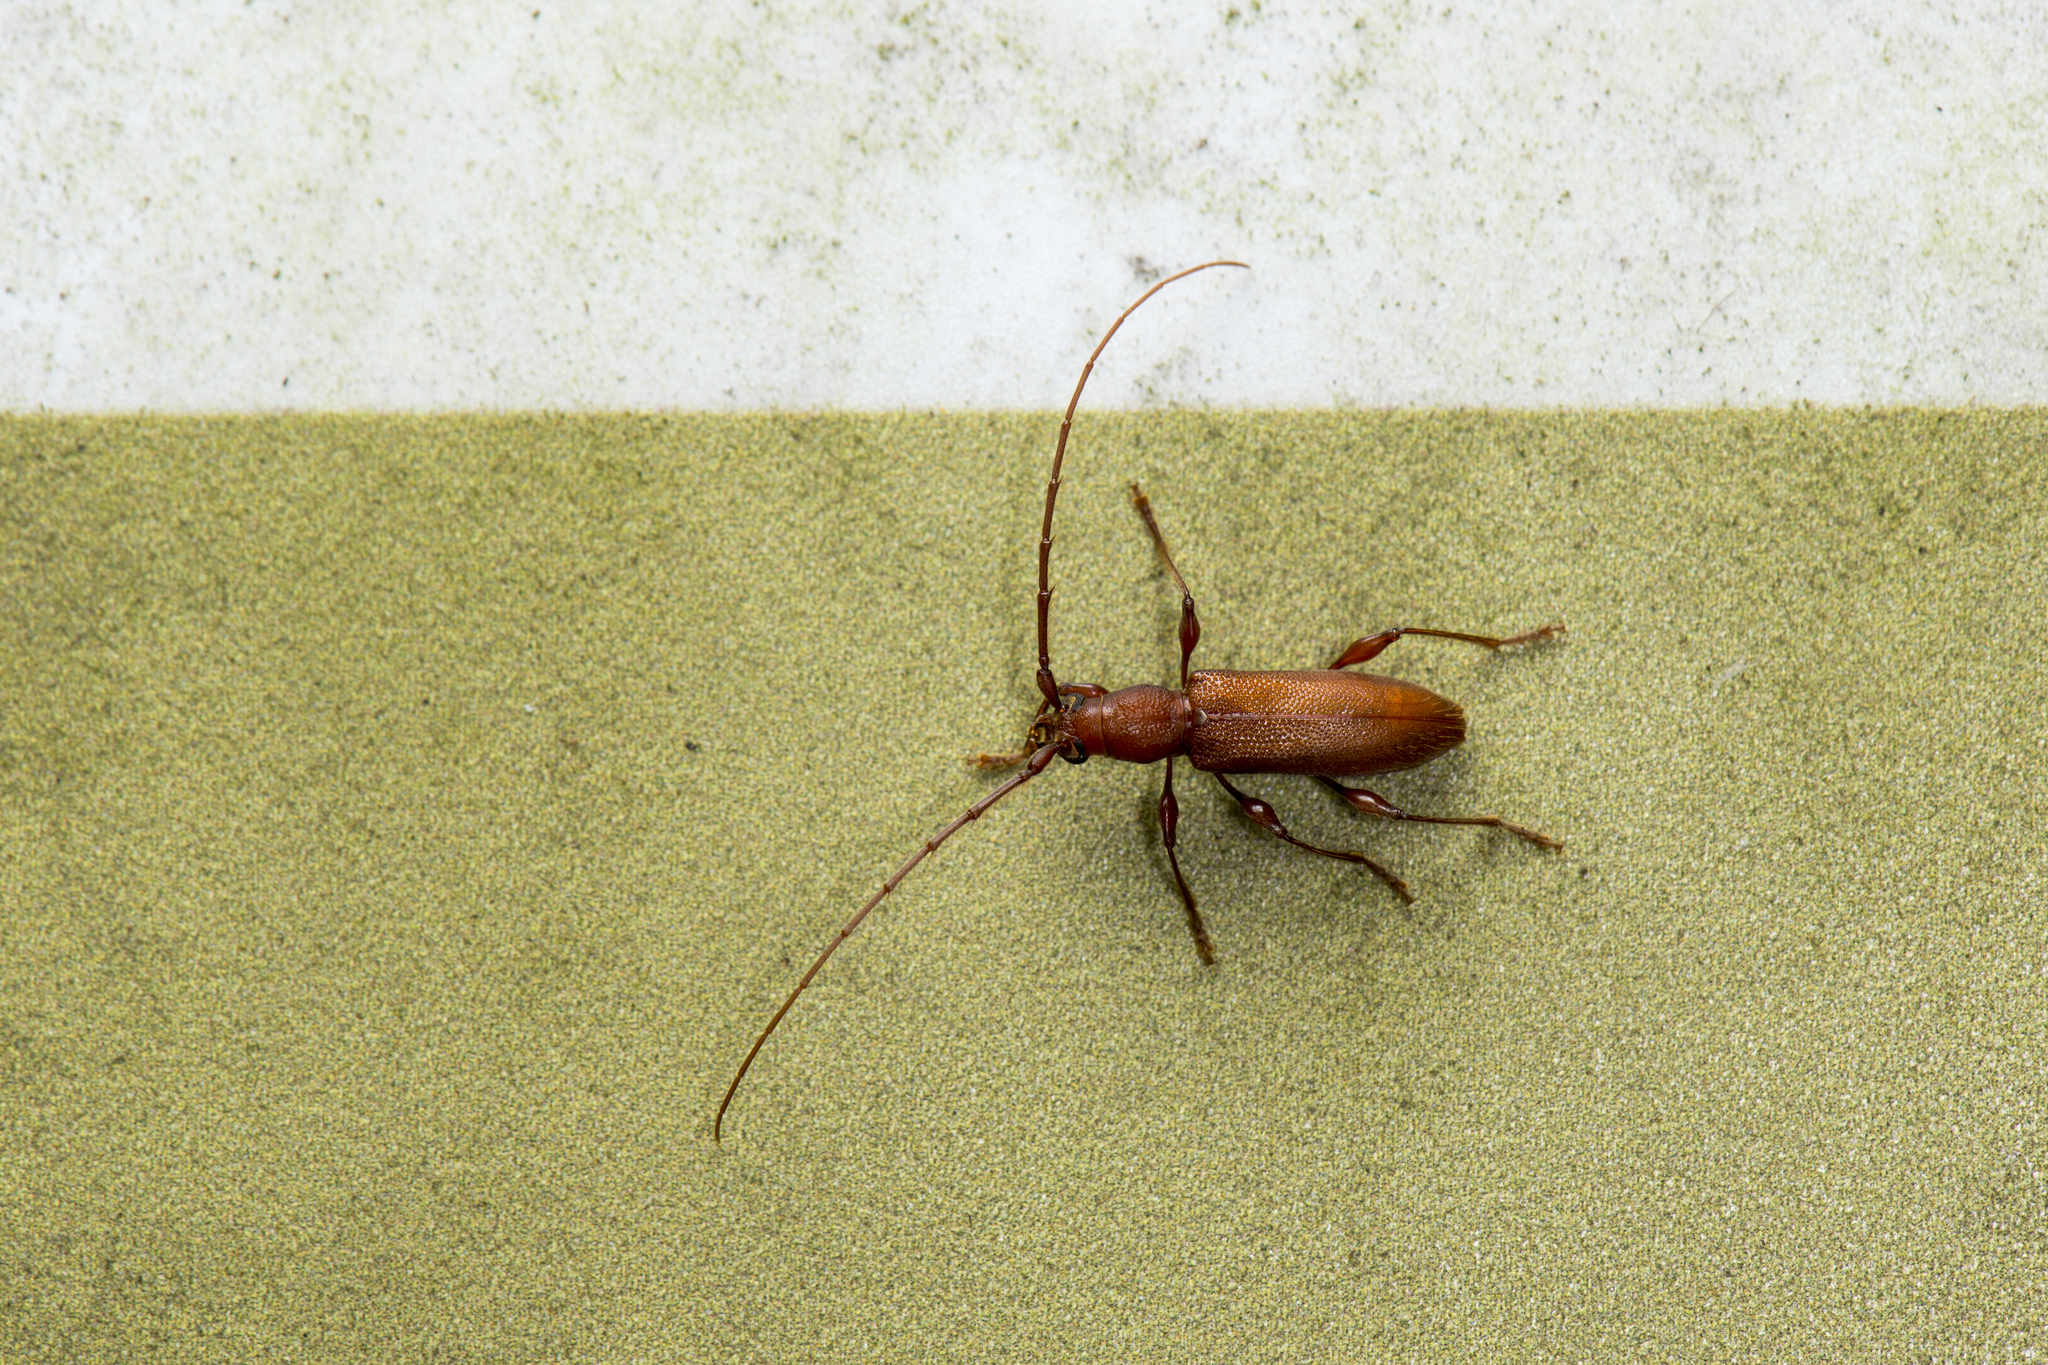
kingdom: Animalia
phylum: Arthropoda
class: Insecta
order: Coleoptera
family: Cerambycidae
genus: Nysina
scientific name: Nysina rufescens
